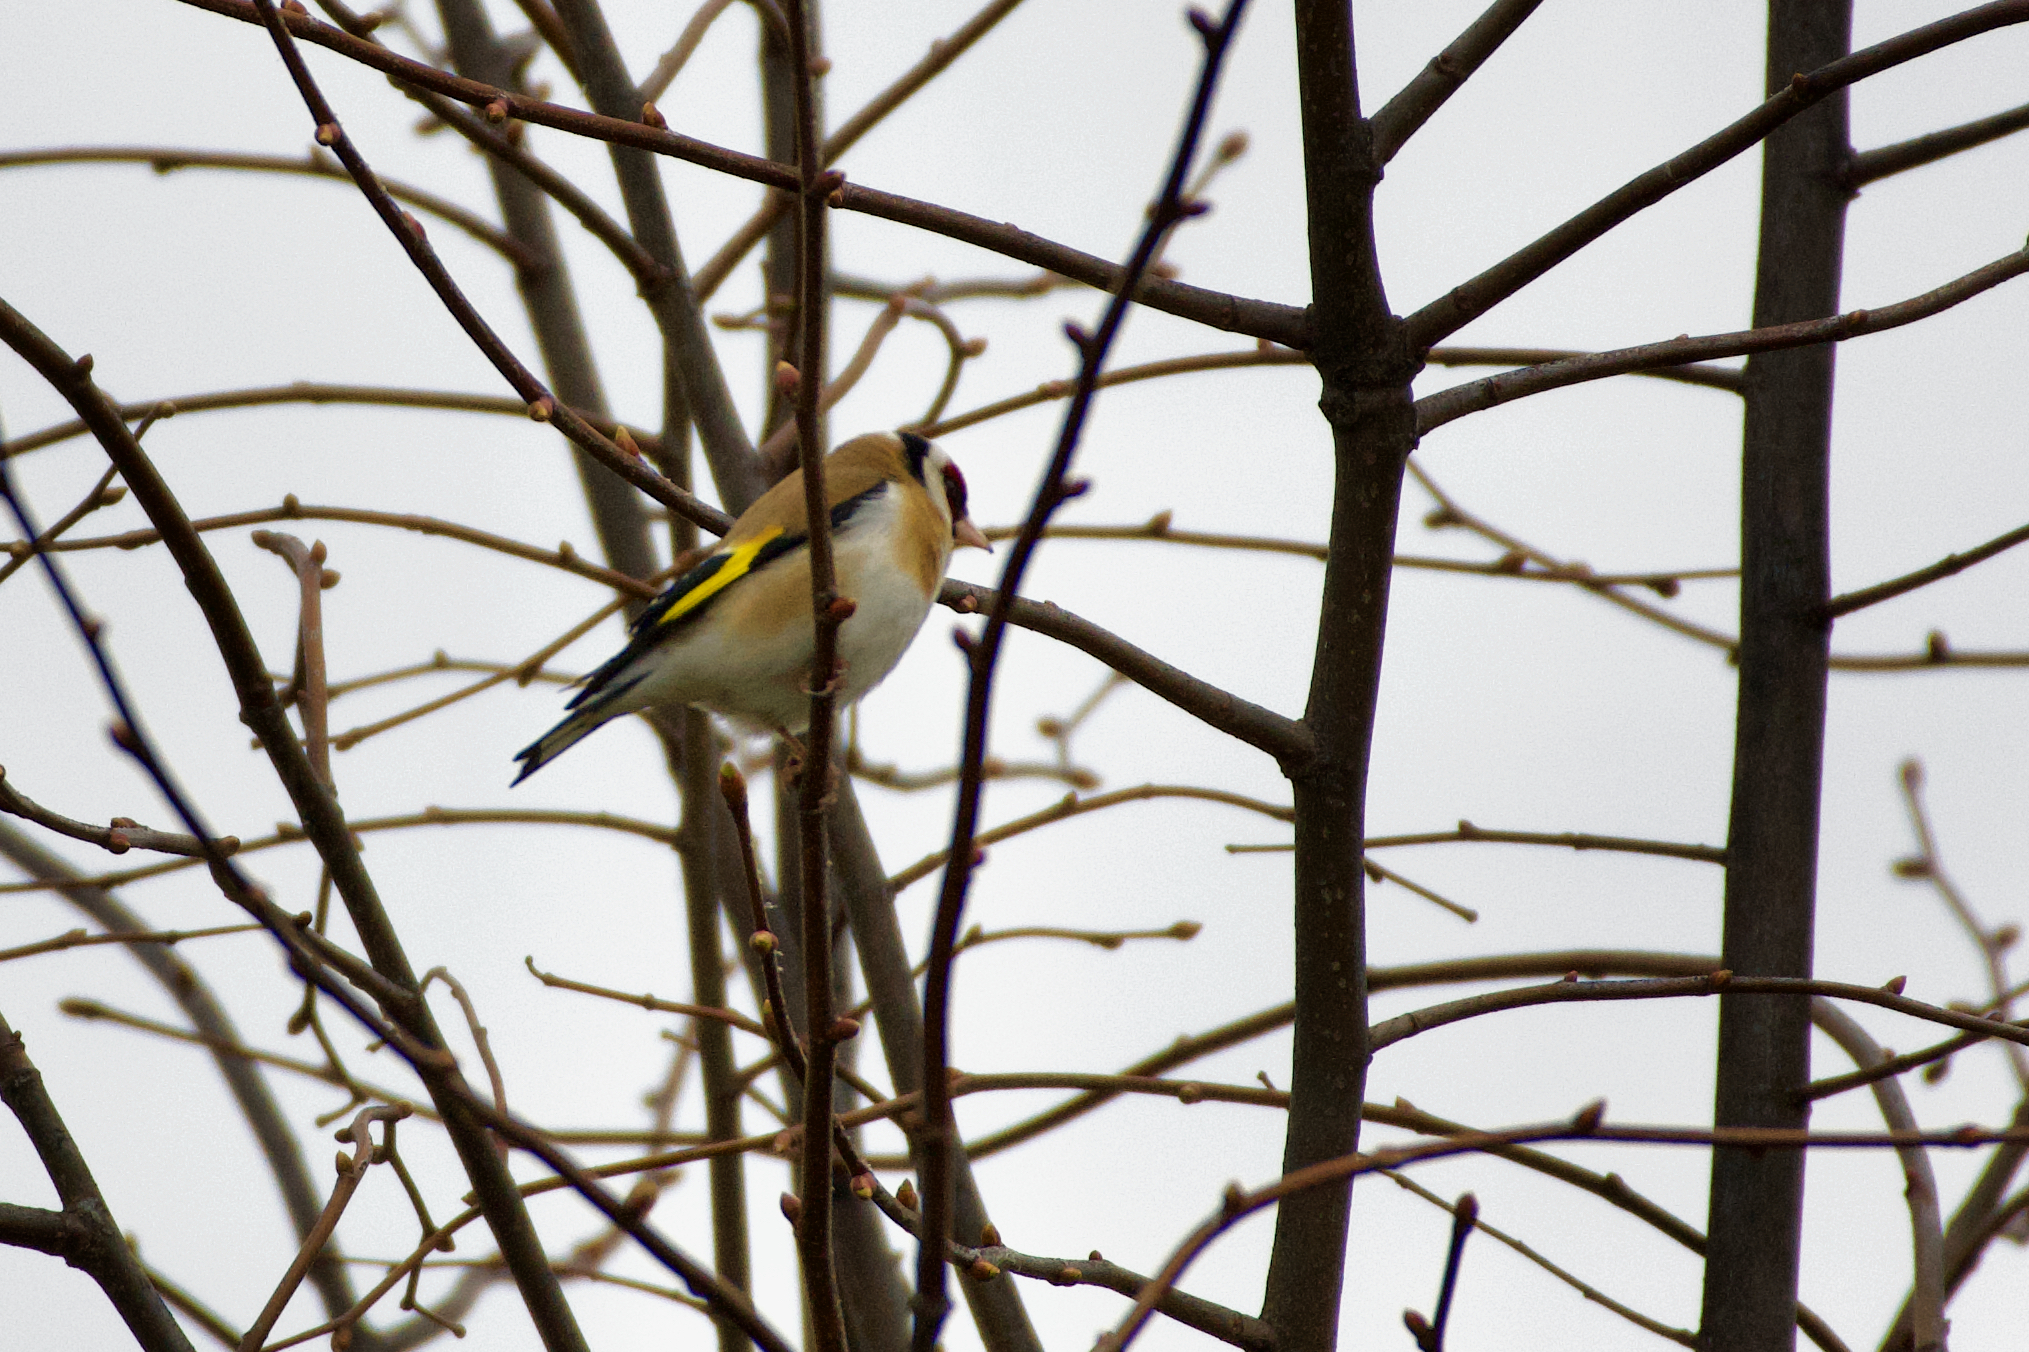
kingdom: Animalia
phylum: Chordata
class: Aves
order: Passeriformes
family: Fringillidae
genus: Carduelis
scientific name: Carduelis carduelis
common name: European goldfinch
